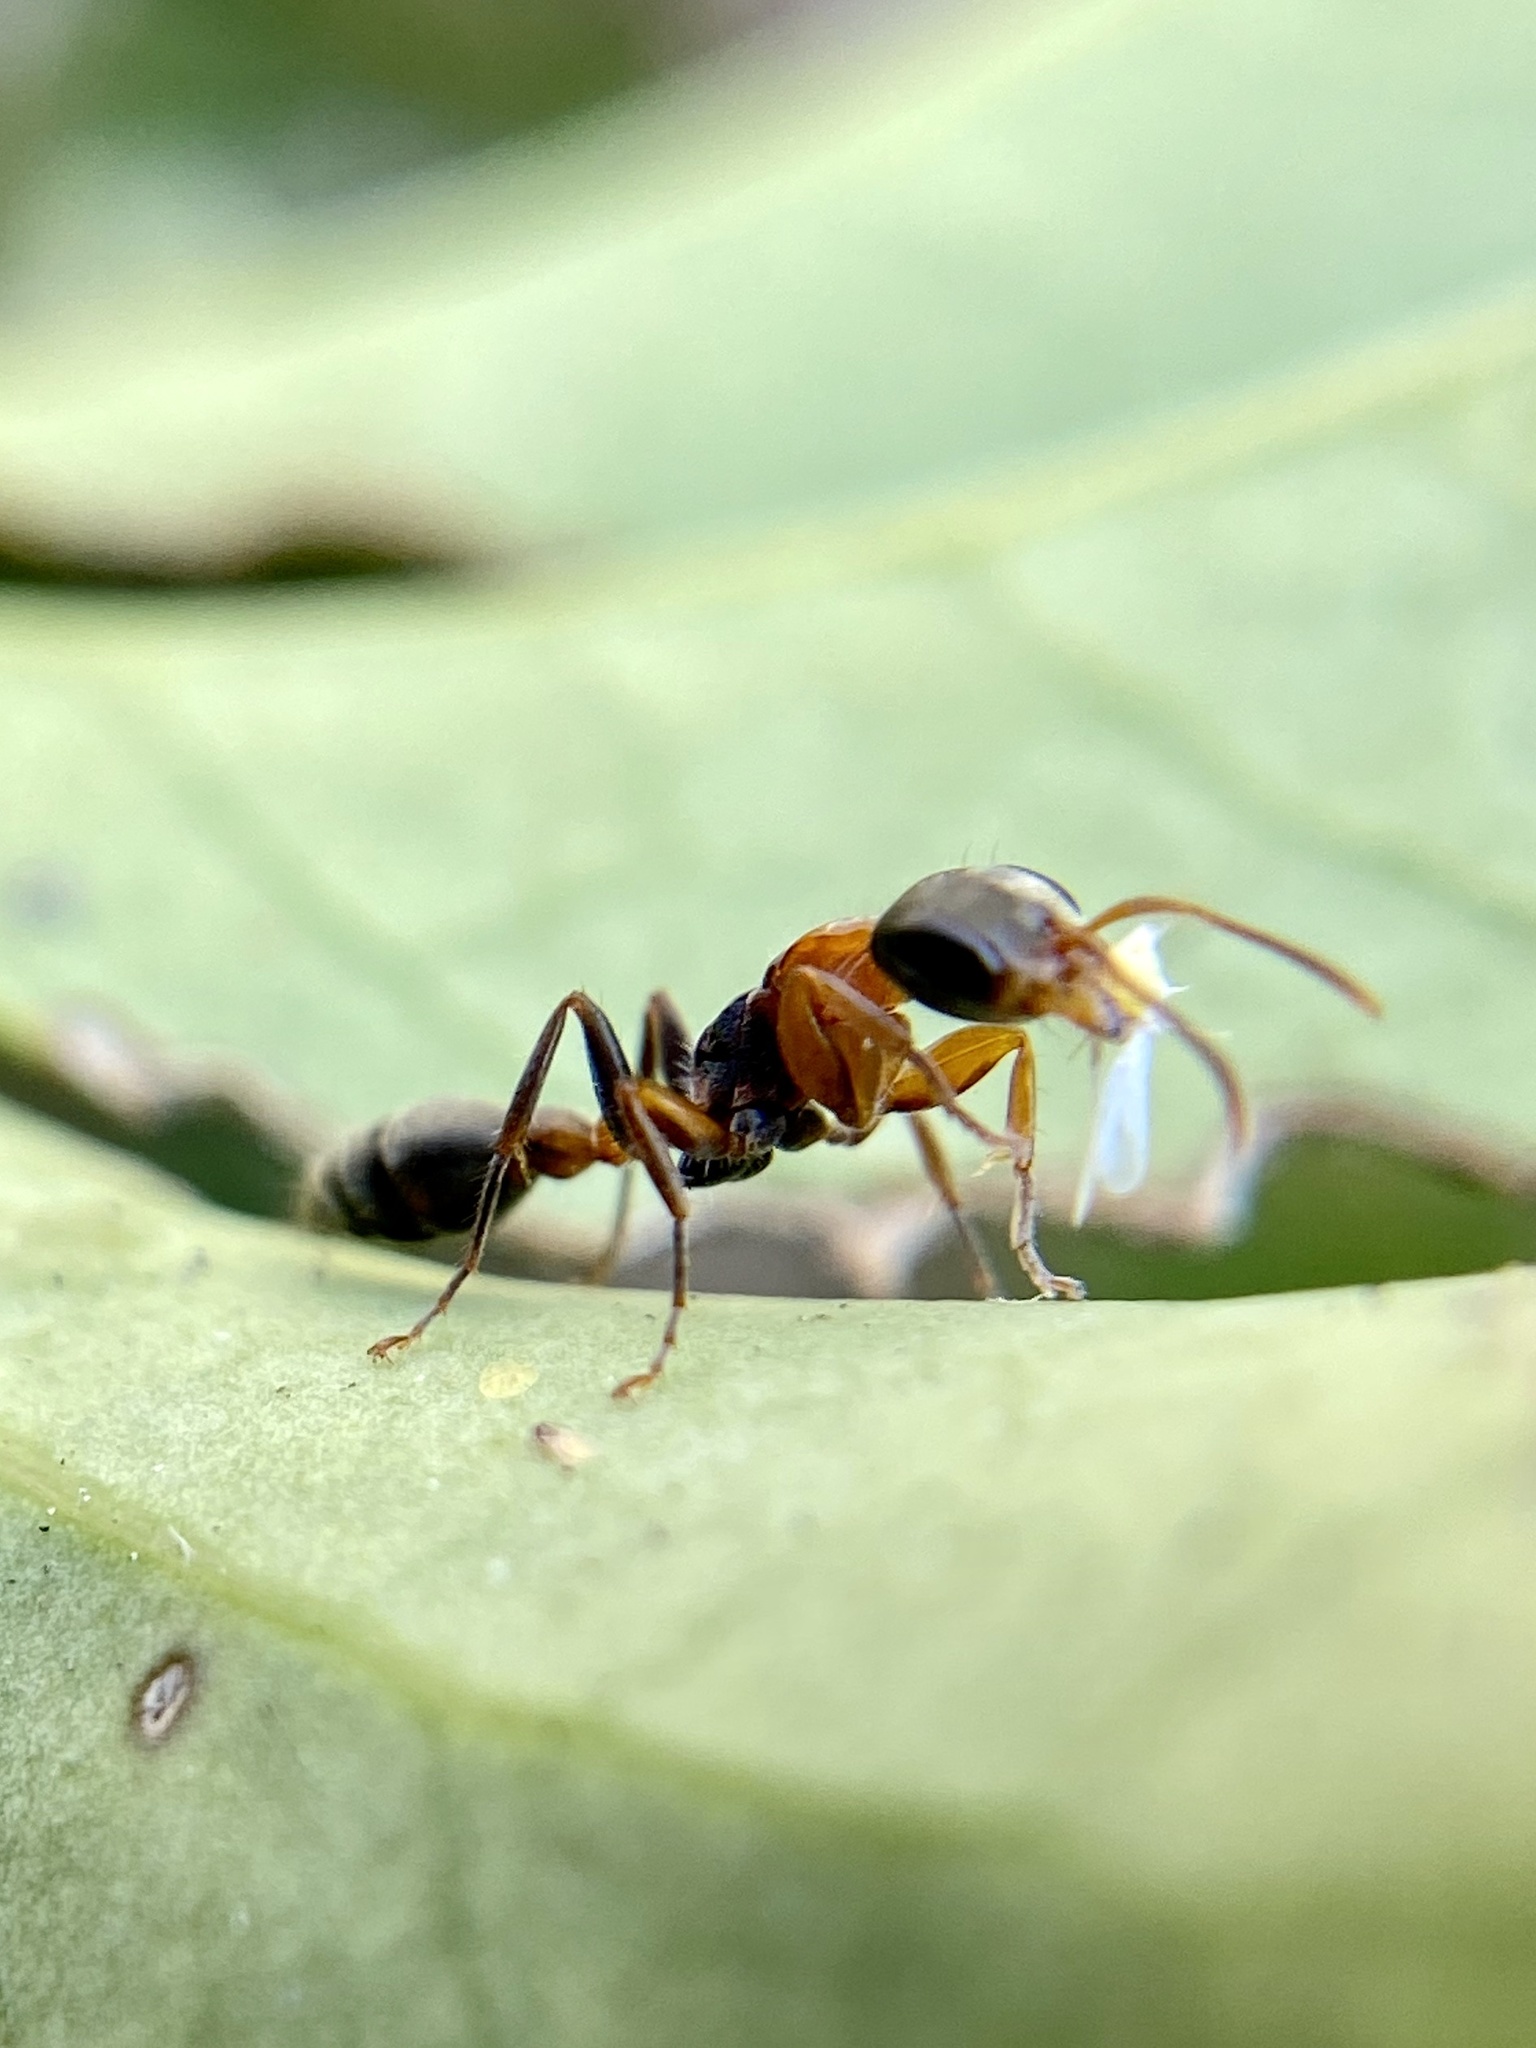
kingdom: Animalia
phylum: Arthropoda
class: Insecta
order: Hymenoptera
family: Formicidae
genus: Pseudomyrmex
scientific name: Pseudomyrmex gracilis
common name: Graceful twig ant
